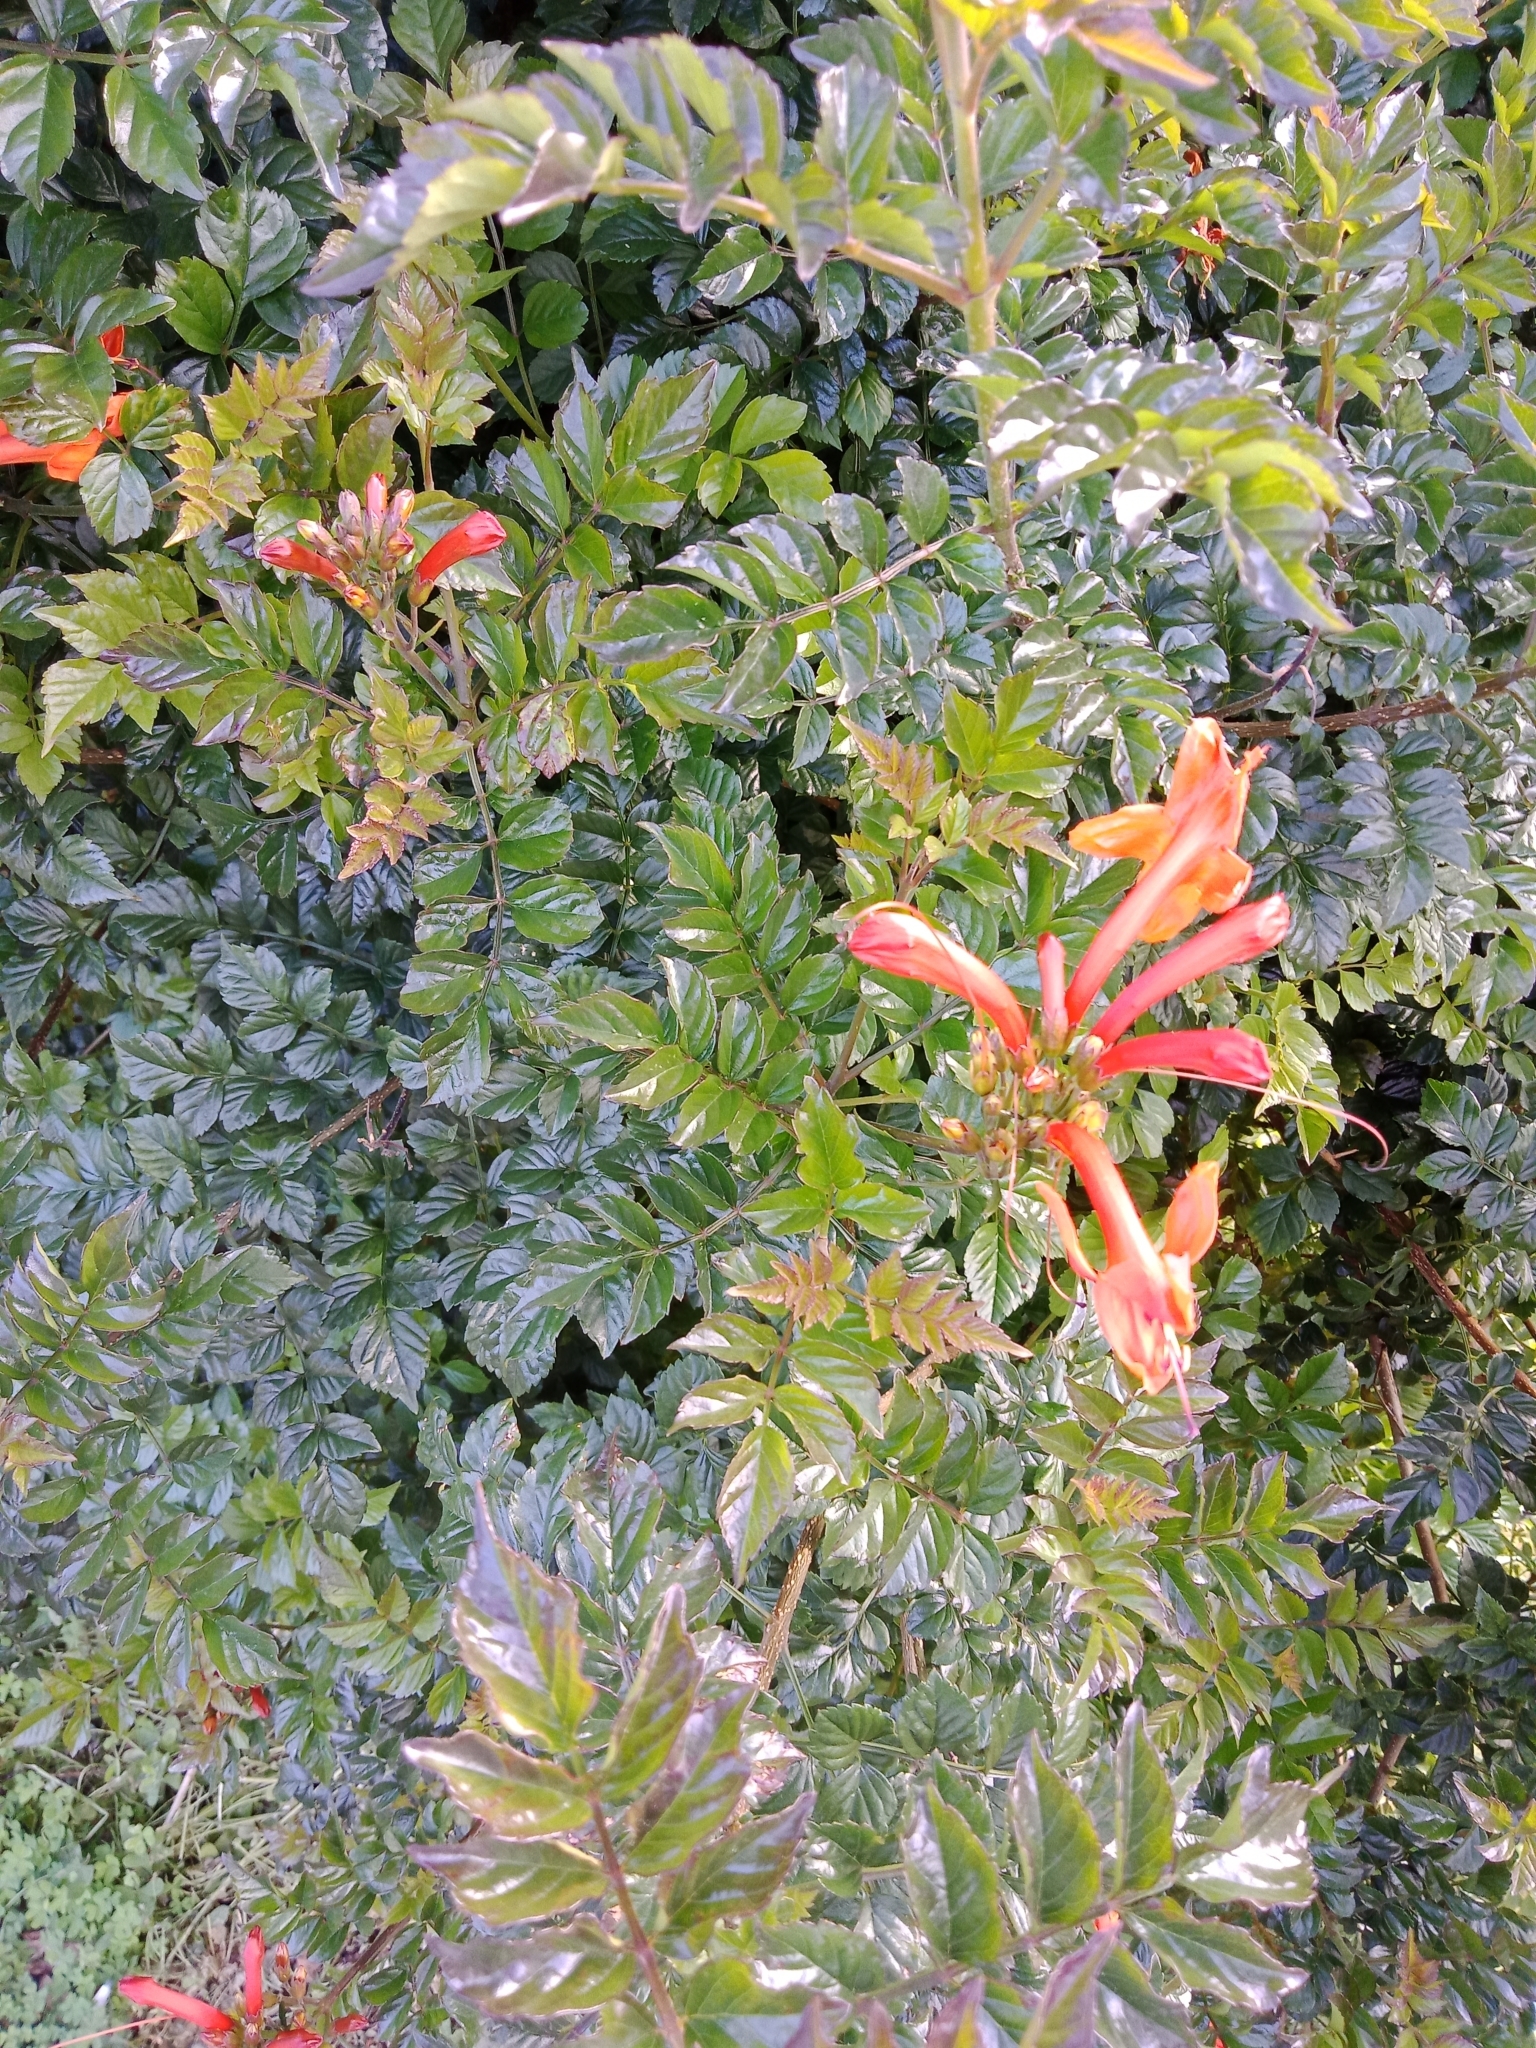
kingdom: Plantae
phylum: Tracheophyta
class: Magnoliopsida
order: Lamiales
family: Bignoniaceae
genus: Tecomaria
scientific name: Tecomaria capensis
